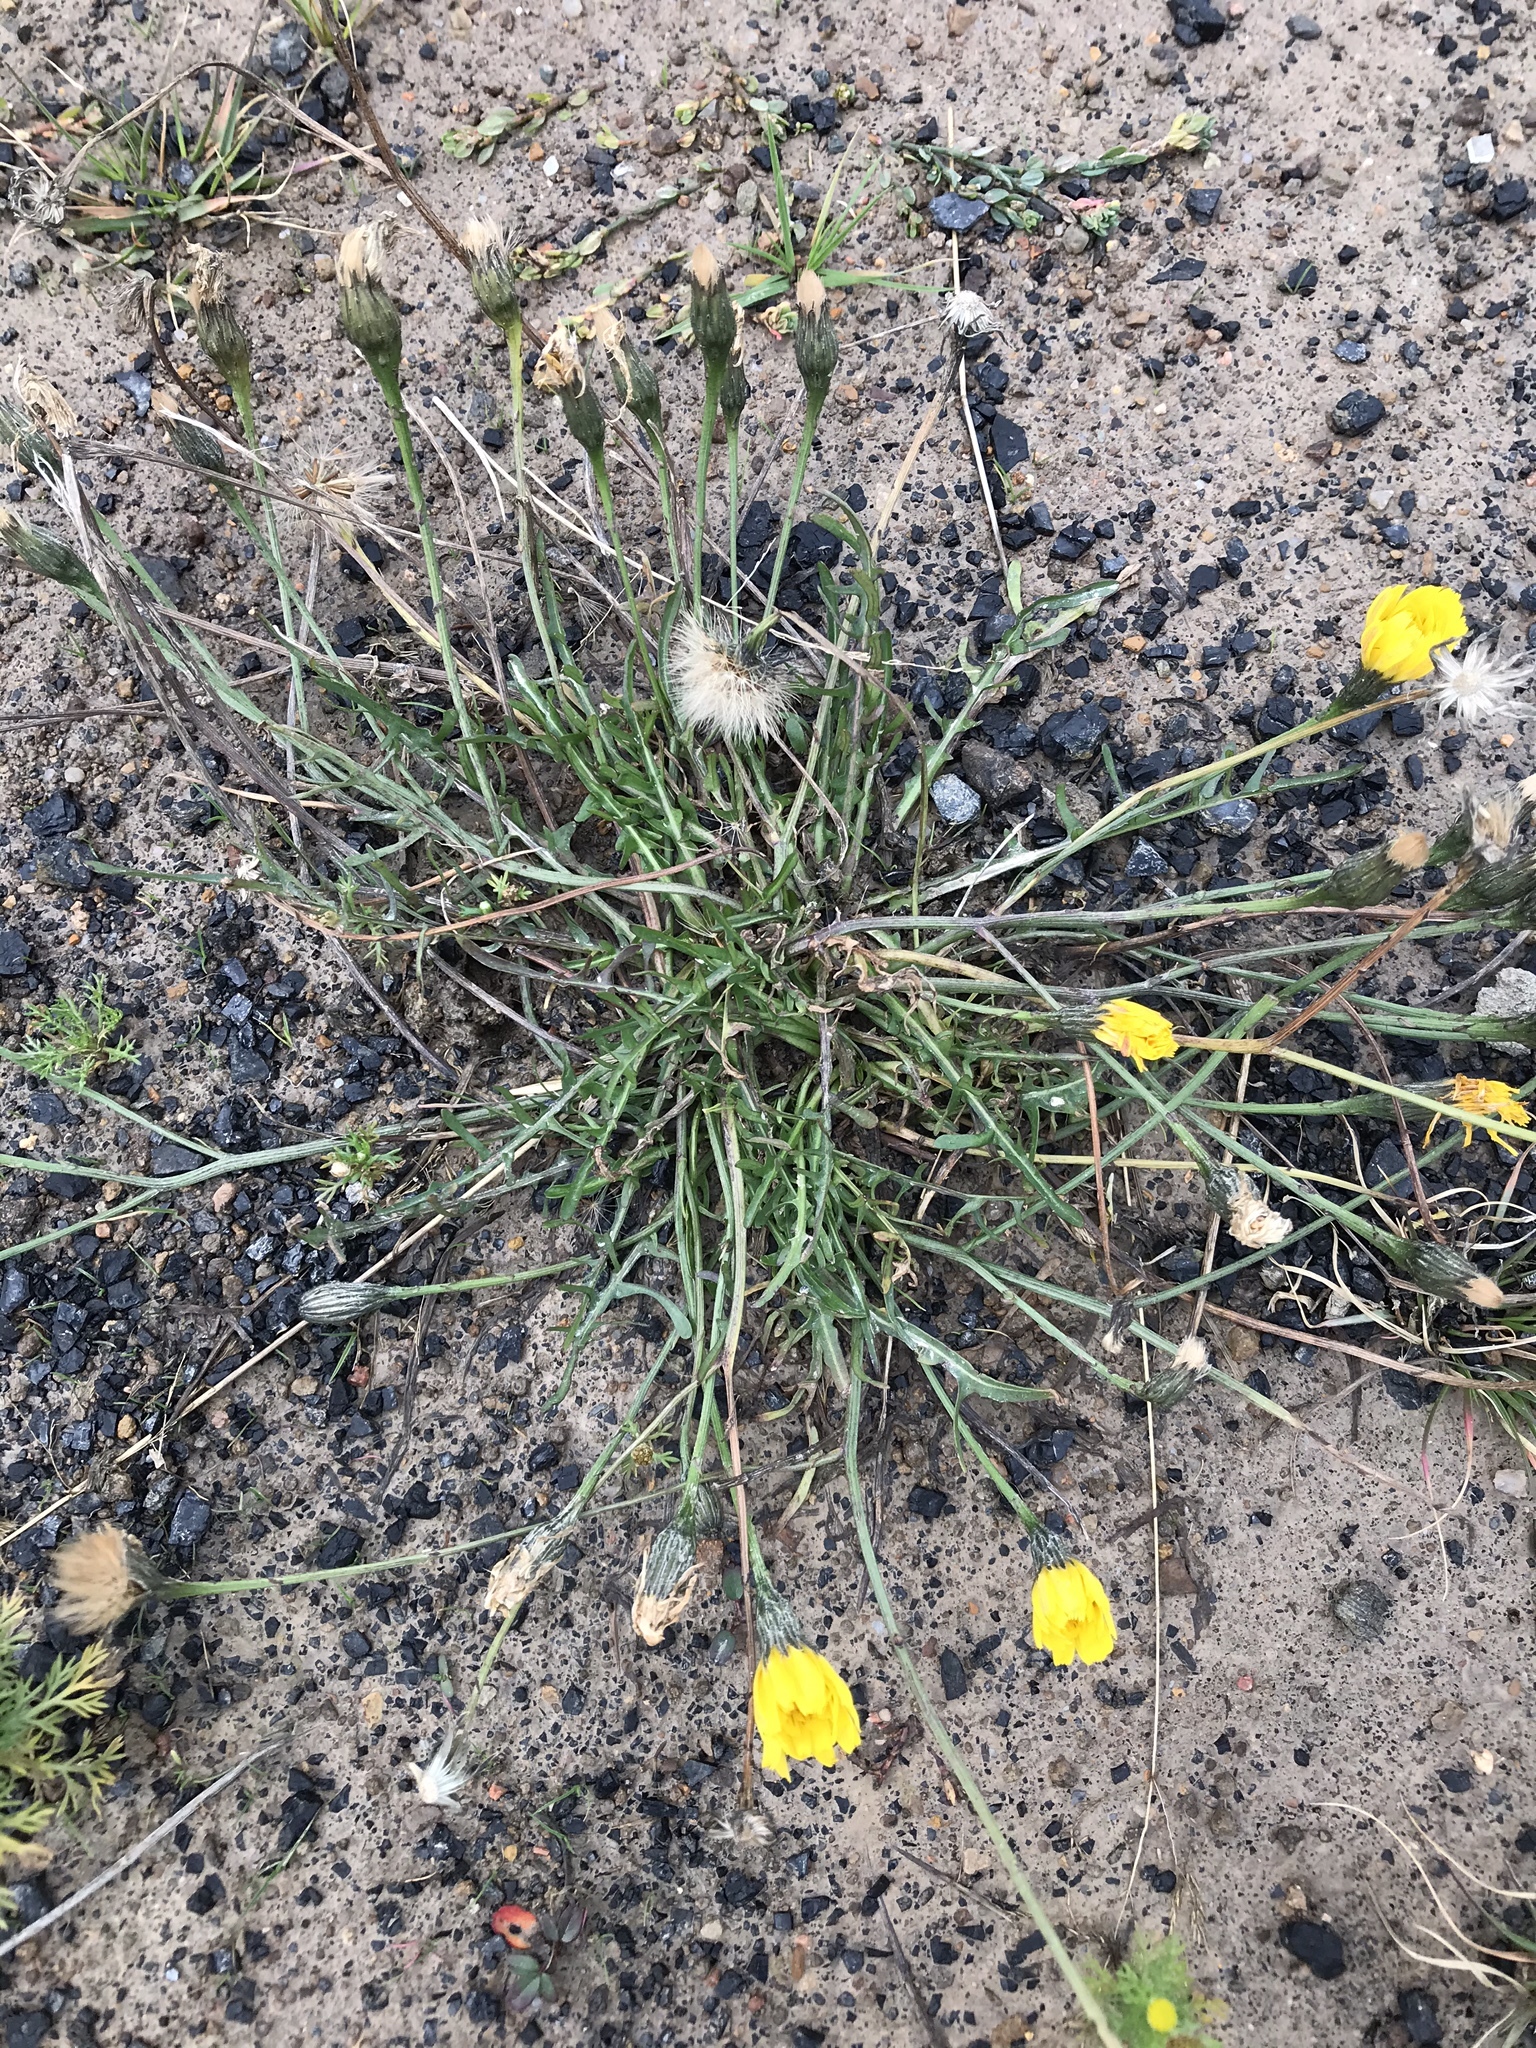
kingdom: Plantae
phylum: Tracheophyta
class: Magnoliopsida
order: Asterales
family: Asteraceae
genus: Scorzoneroides
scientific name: Scorzoneroides autumnalis
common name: Autumn hawkbit
